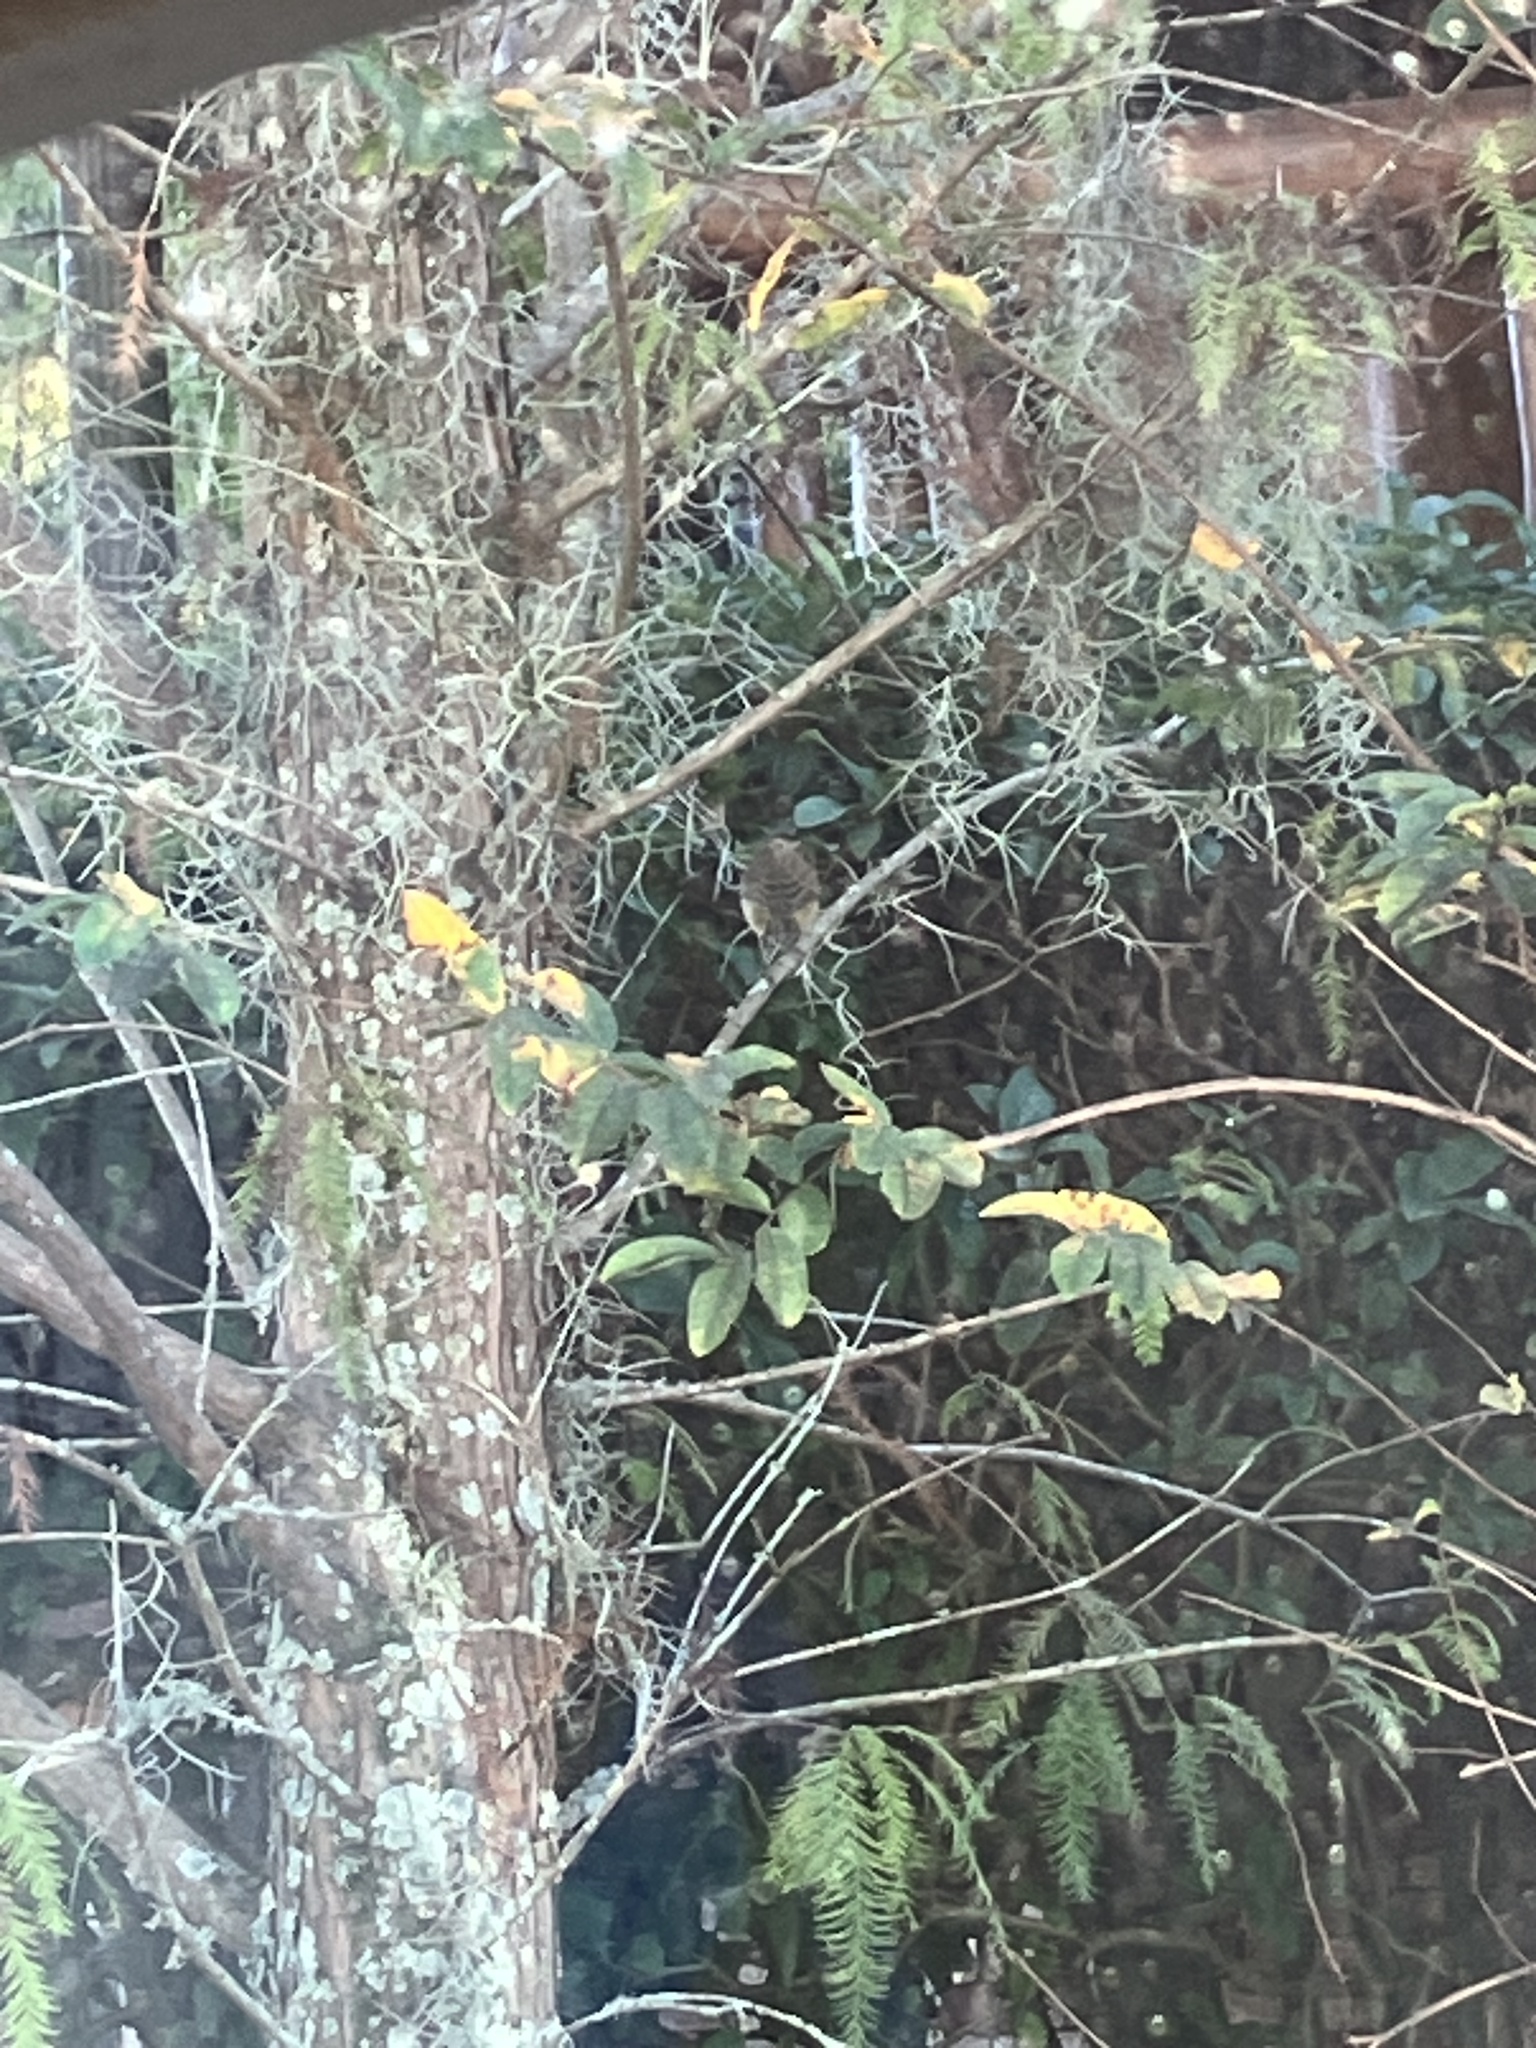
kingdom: Animalia
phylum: Chordata
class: Aves
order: Passeriformes
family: Parulidae
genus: Setophaga
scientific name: Setophaga palmarum
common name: Palm warbler
